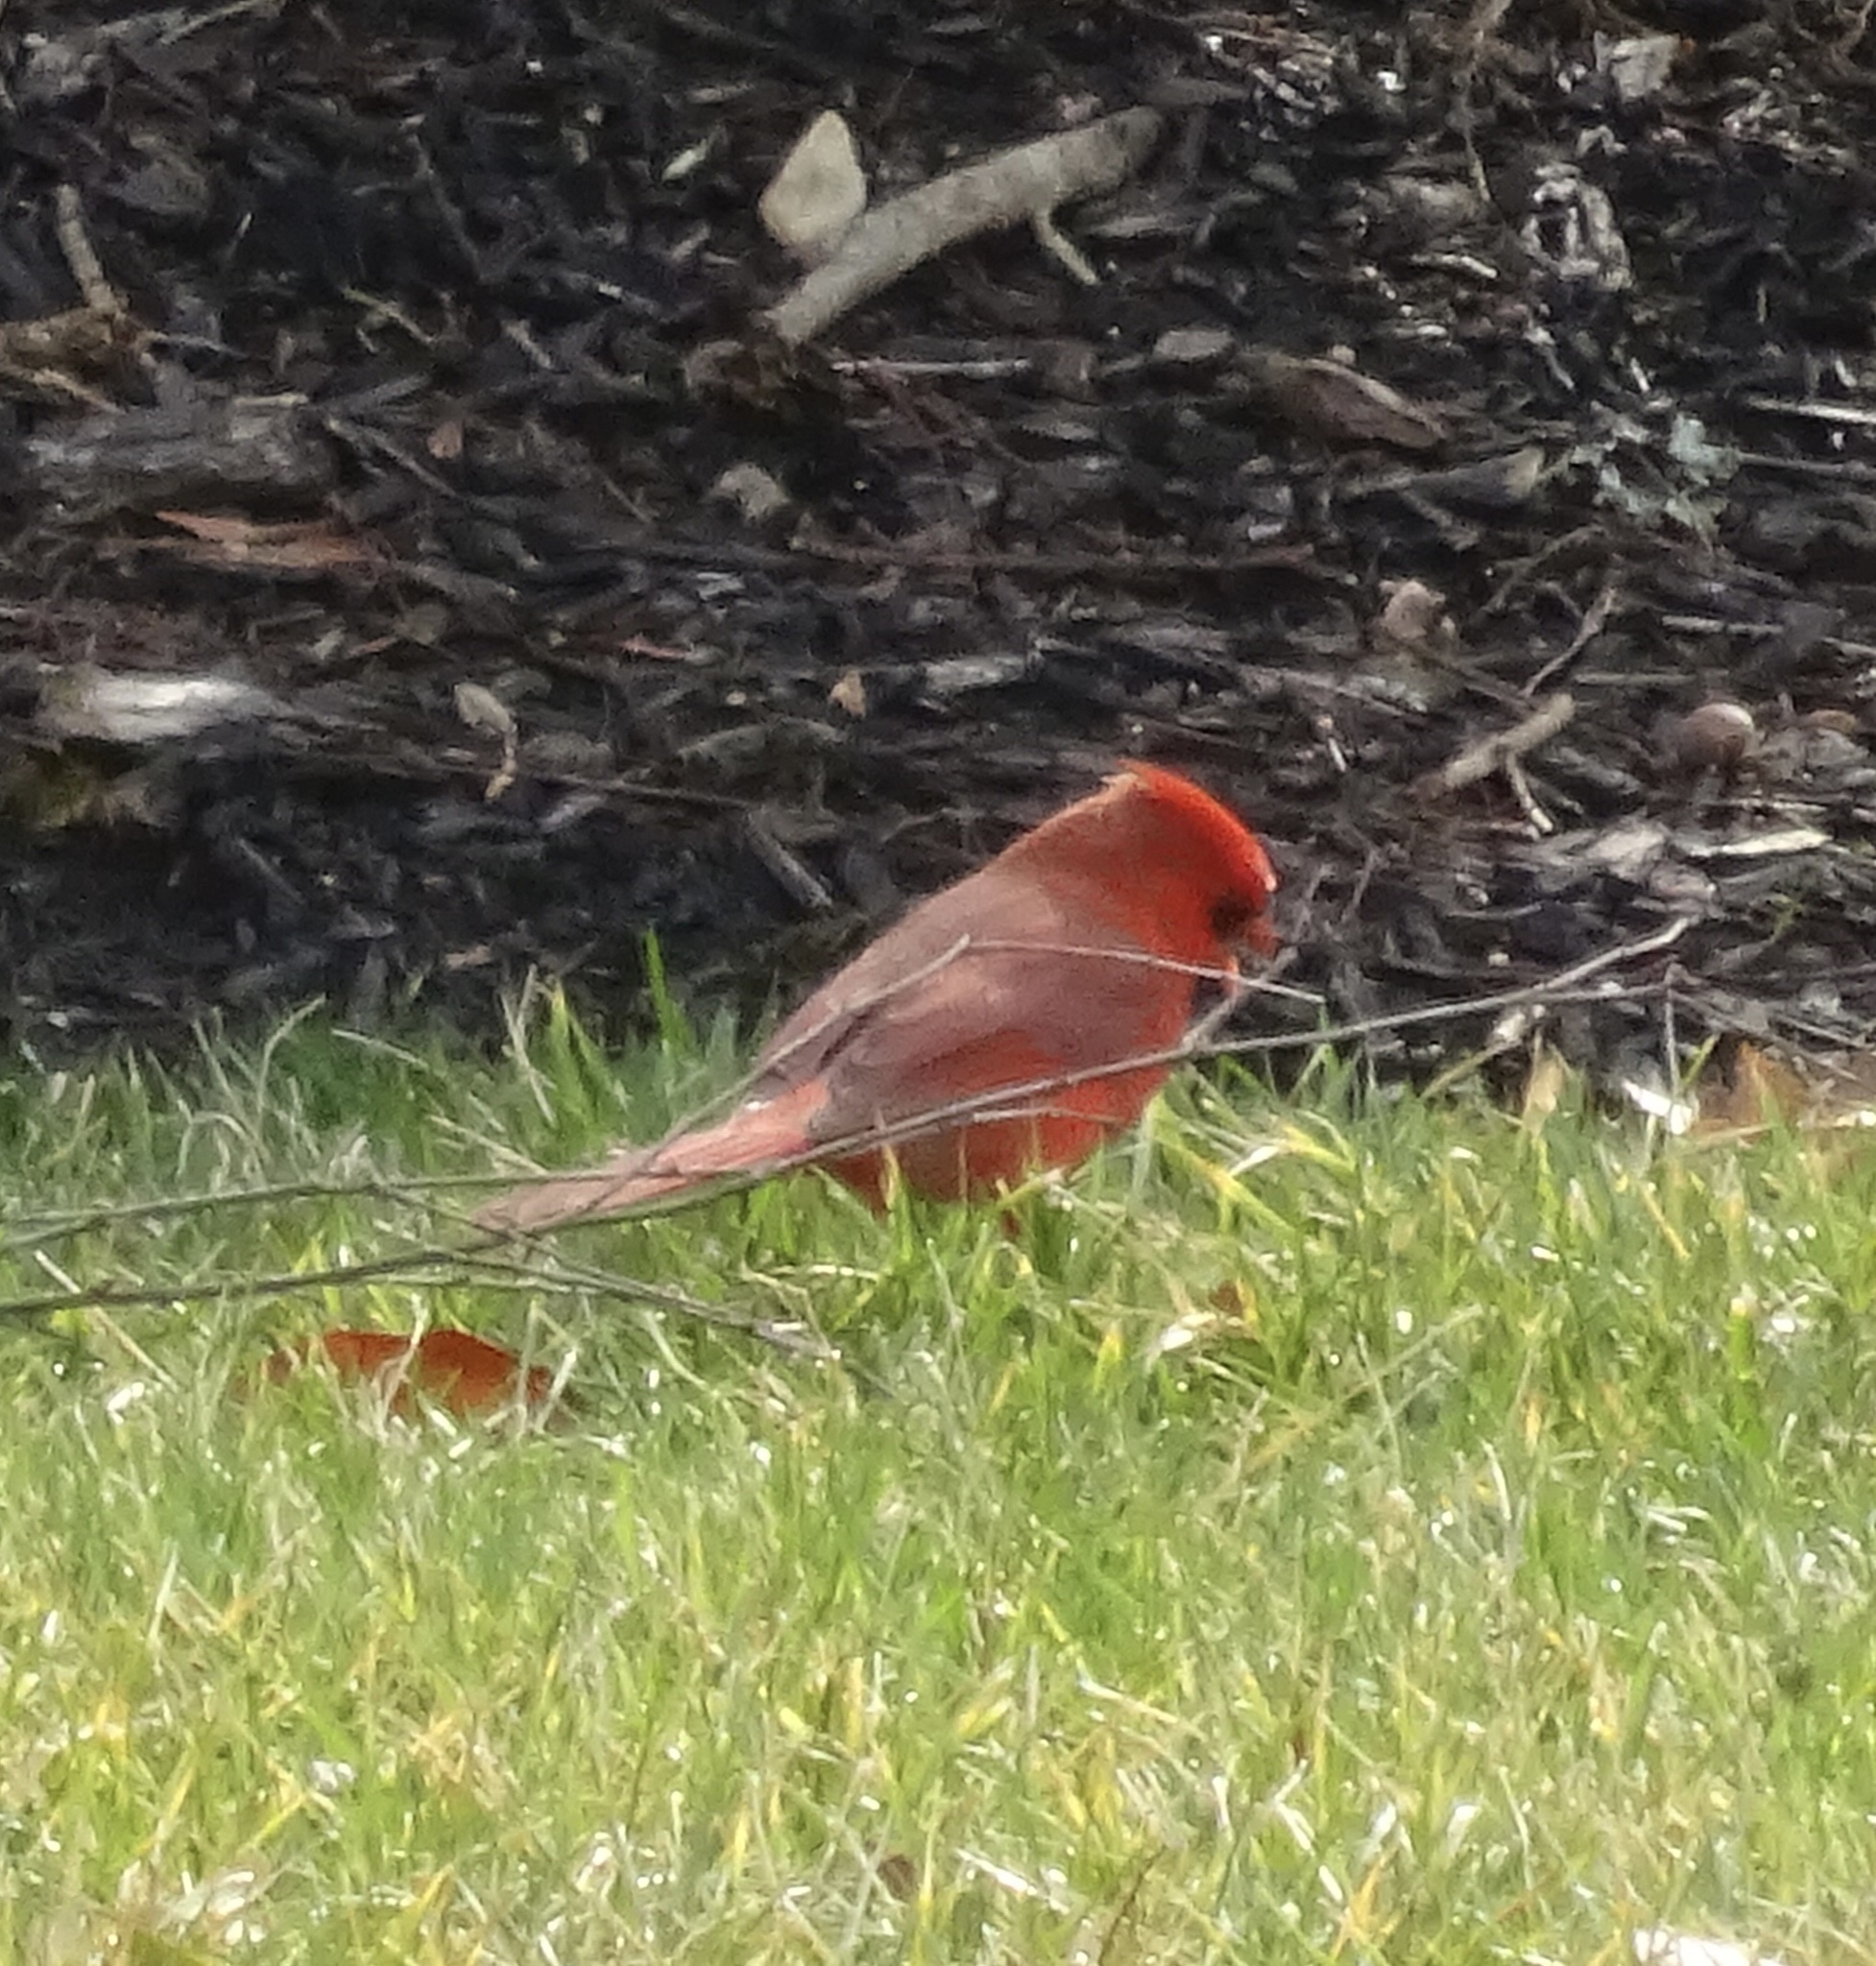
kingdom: Animalia
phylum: Chordata
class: Aves
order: Passeriformes
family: Cardinalidae
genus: Cardinalis
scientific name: Cardinalis cardinalis
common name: Northern cardinal
